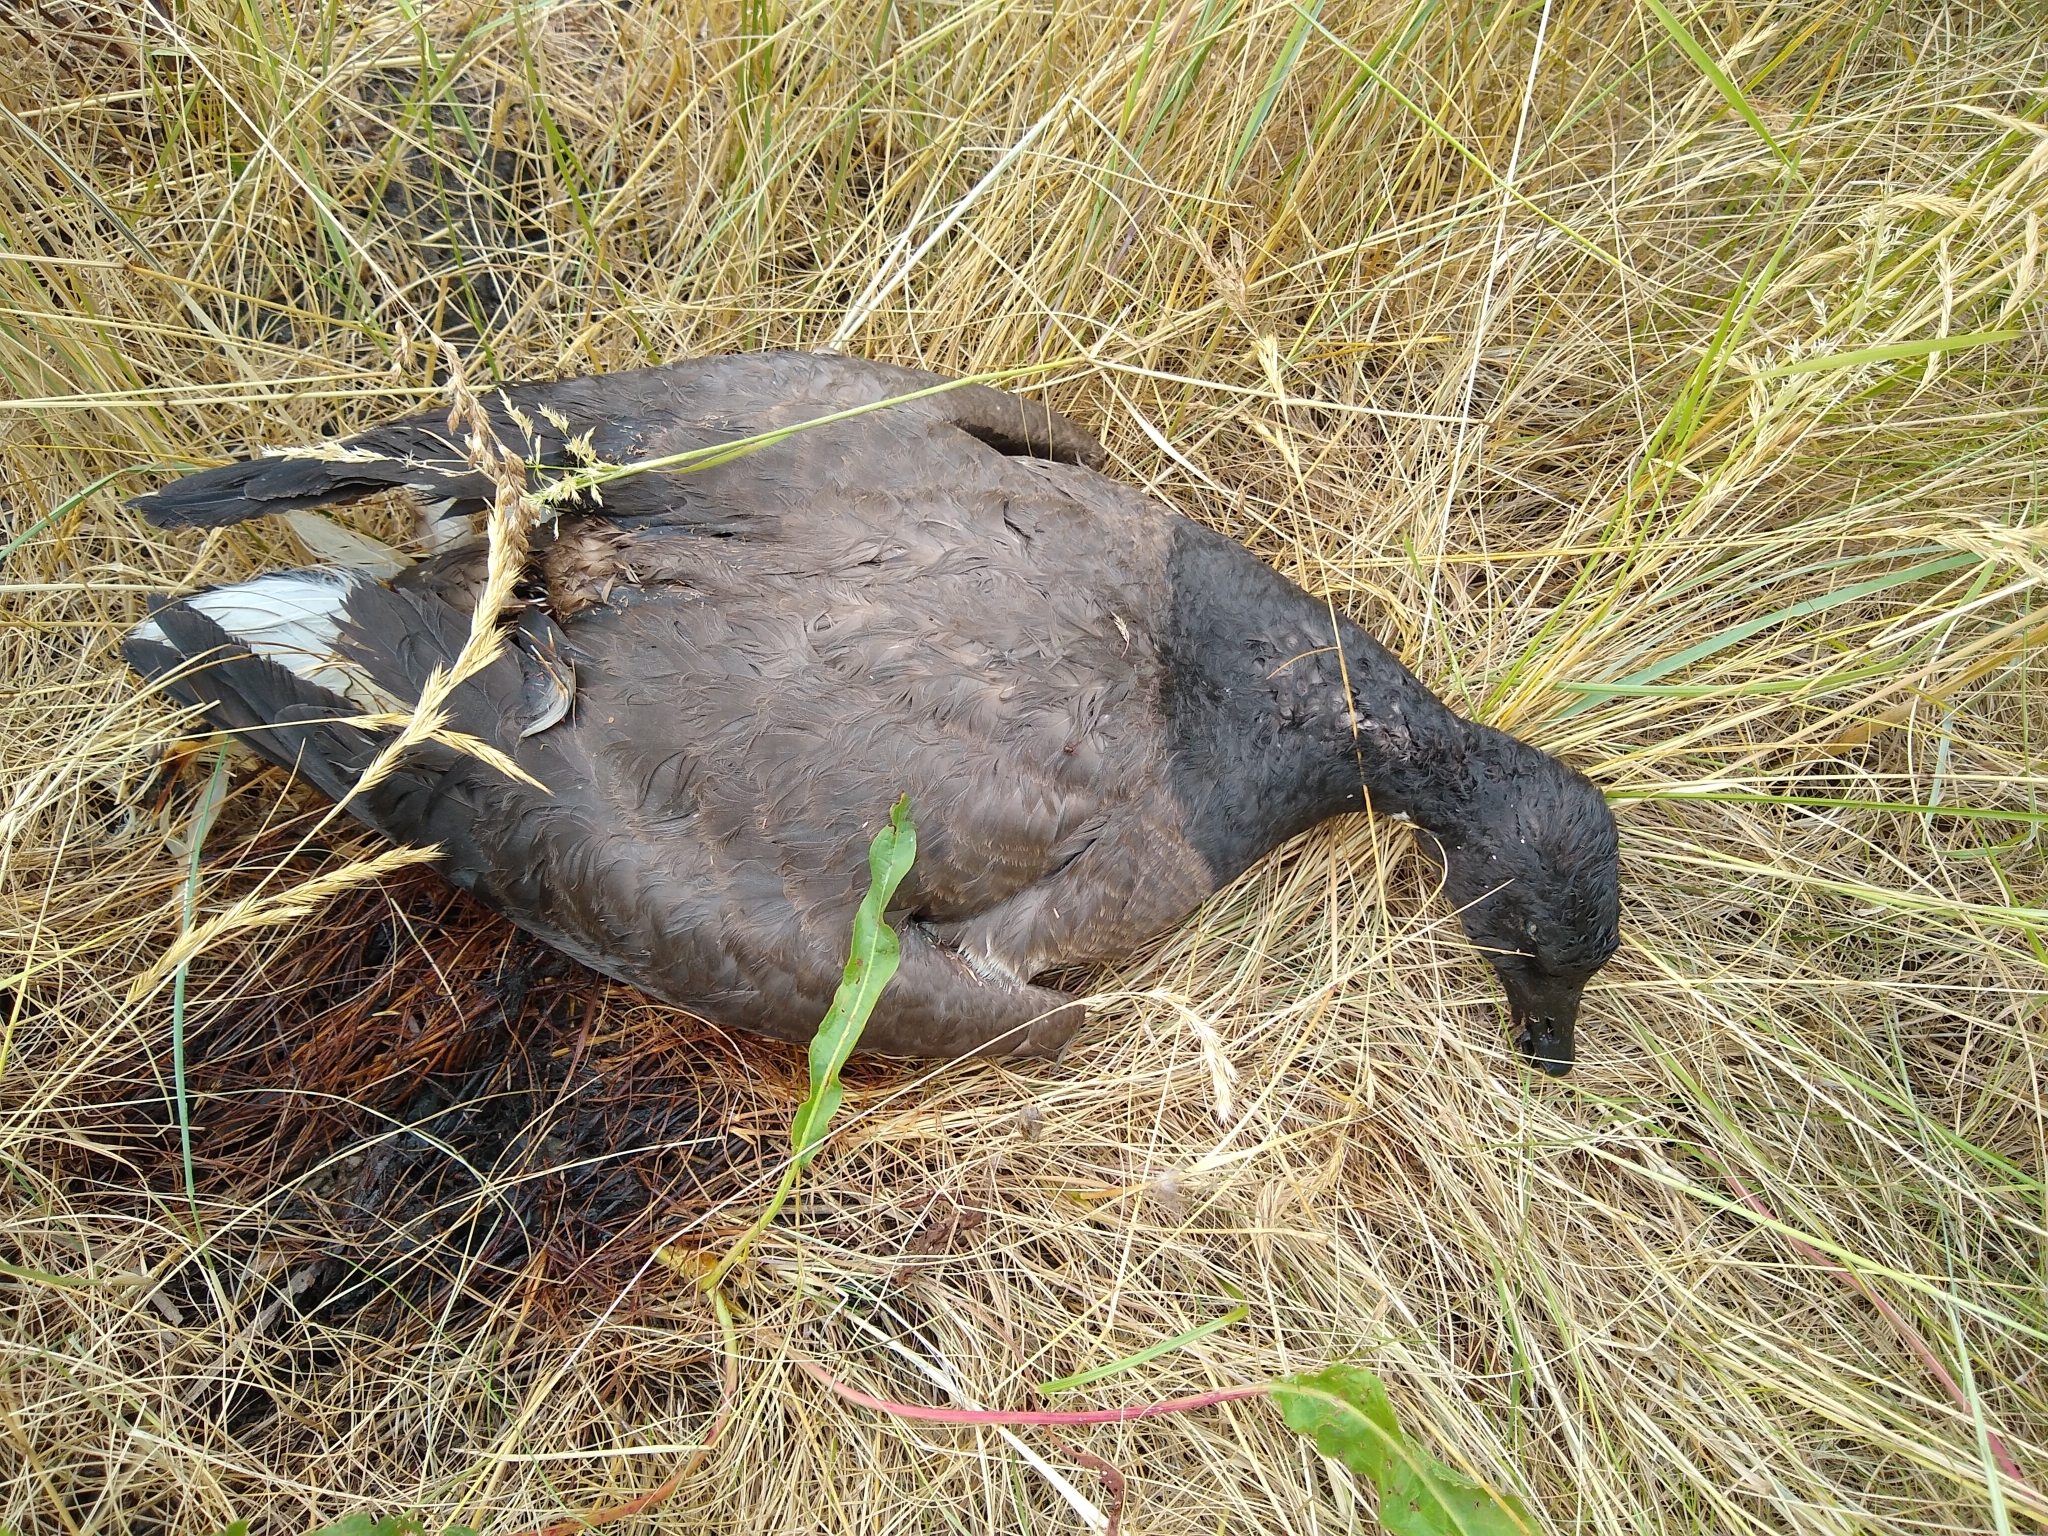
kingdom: Animalia
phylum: Chordata
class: Aves
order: Anseriformes
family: Anatidae
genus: Branta
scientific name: Branta bernicla
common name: Brant goose
